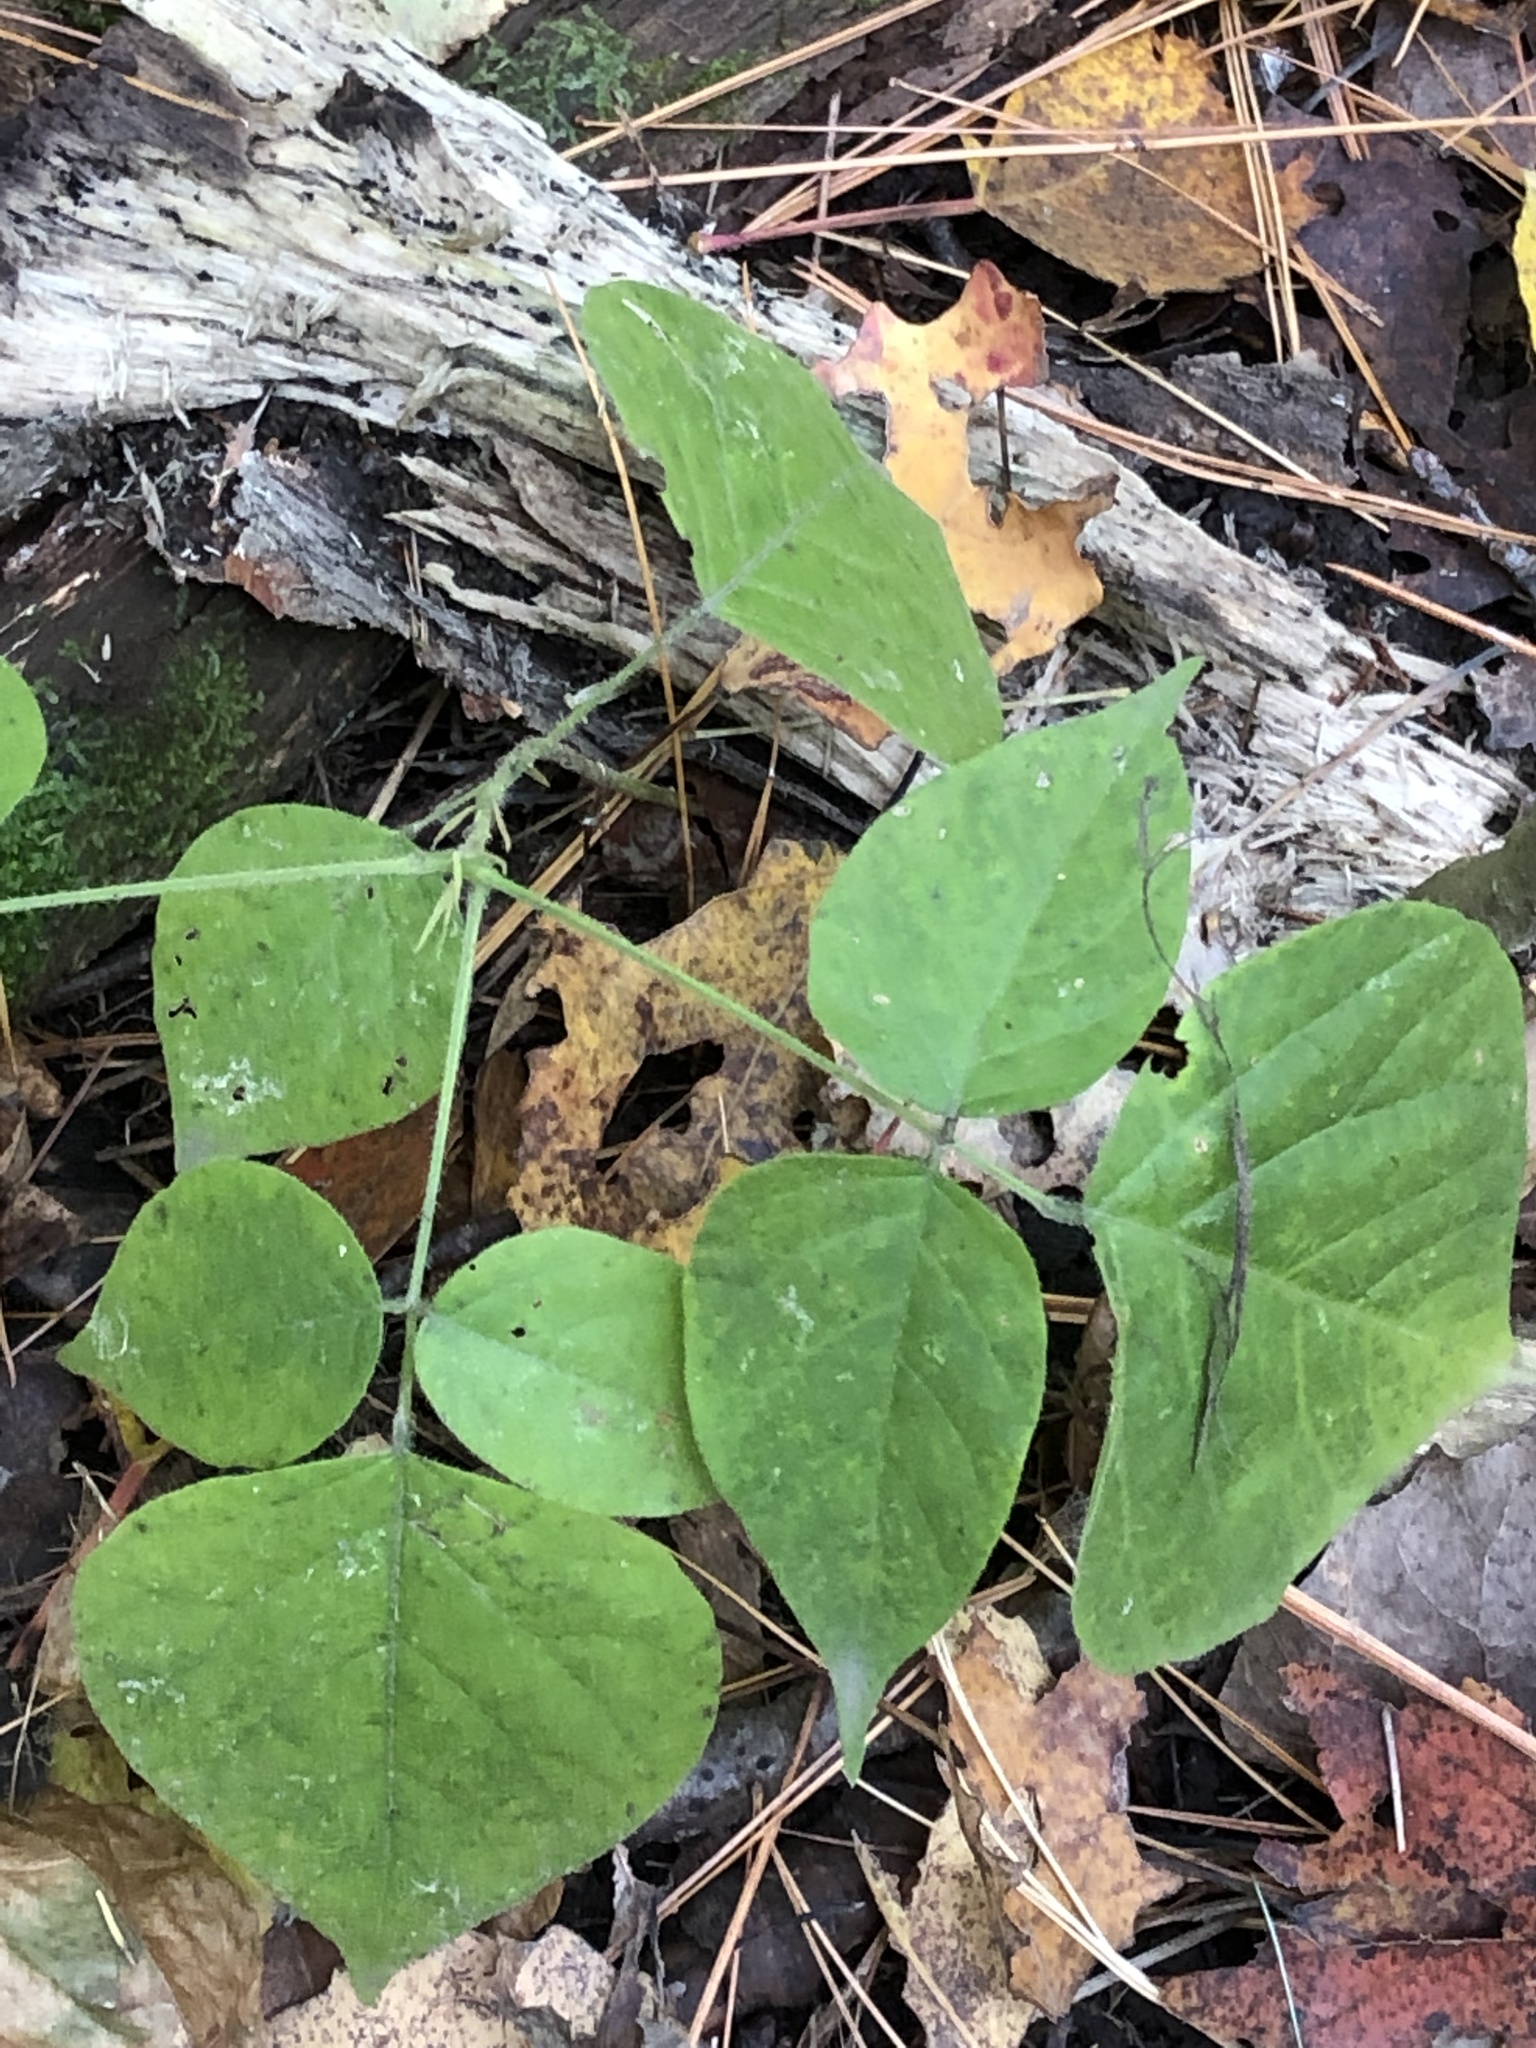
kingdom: Plantae
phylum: Tracheophyta
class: Magnoliopsida
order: Fabales
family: Fabaceae
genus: Hylodesmum
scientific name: Hylodesmum glutinosum
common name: Clustered-leaved tick-trefoil
